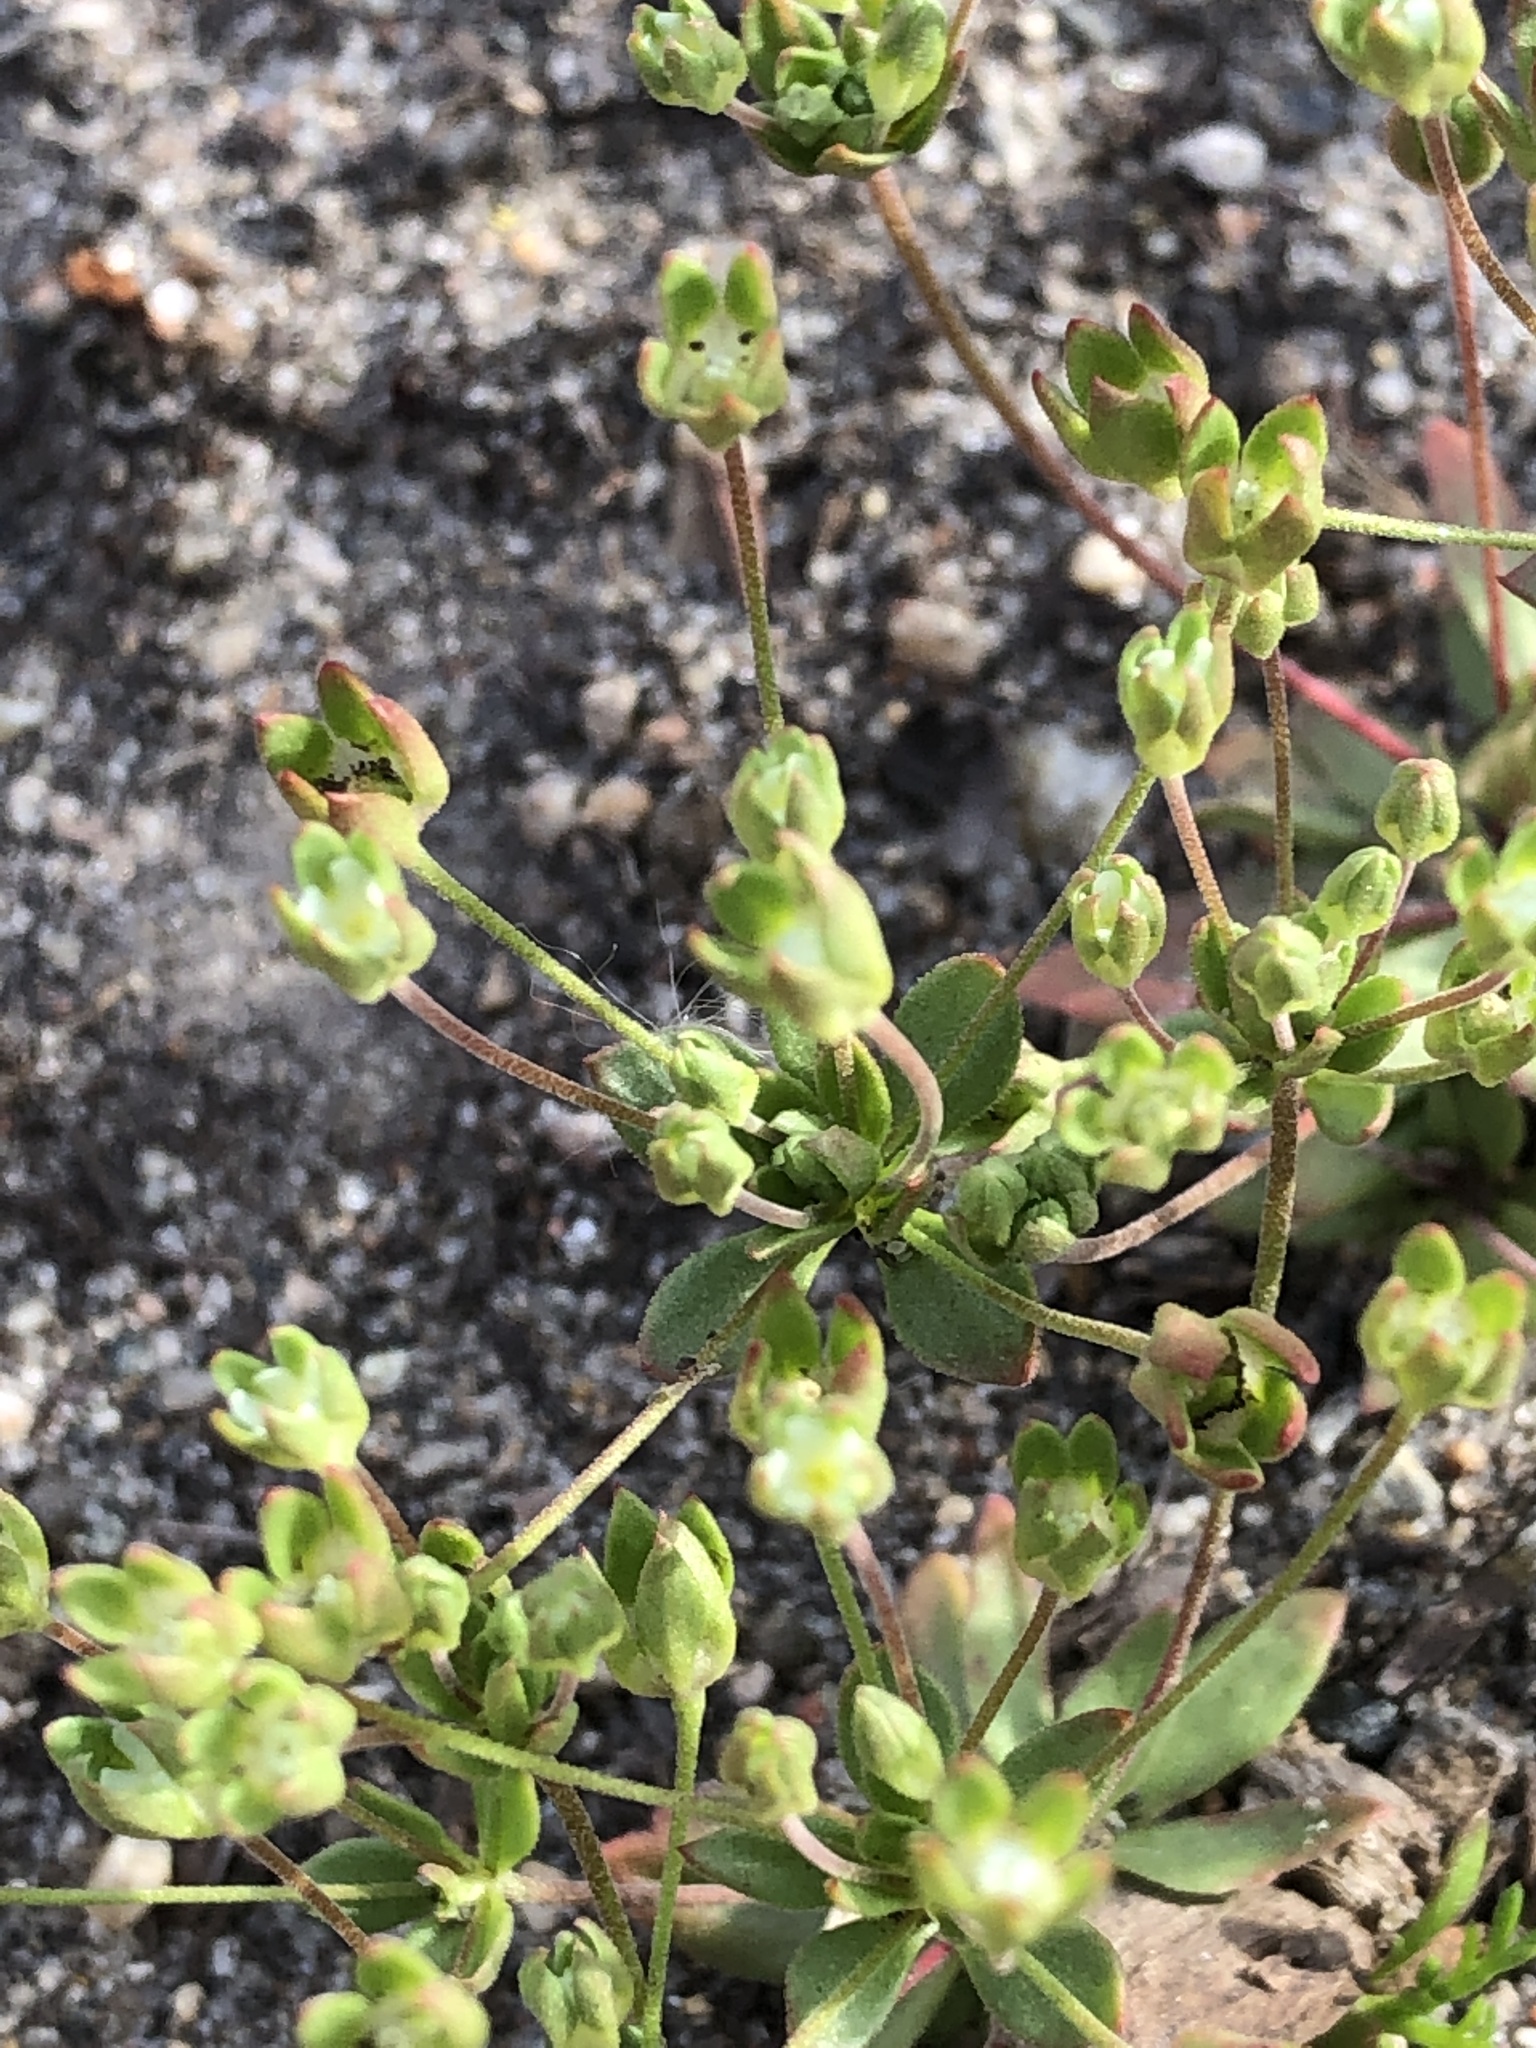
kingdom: Plantae
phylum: Tracheophyta
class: Magnoliopsida
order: Ericales
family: Primulaceae
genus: Androsace
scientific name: Androsace occidentalis
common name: West rock-jasmine
